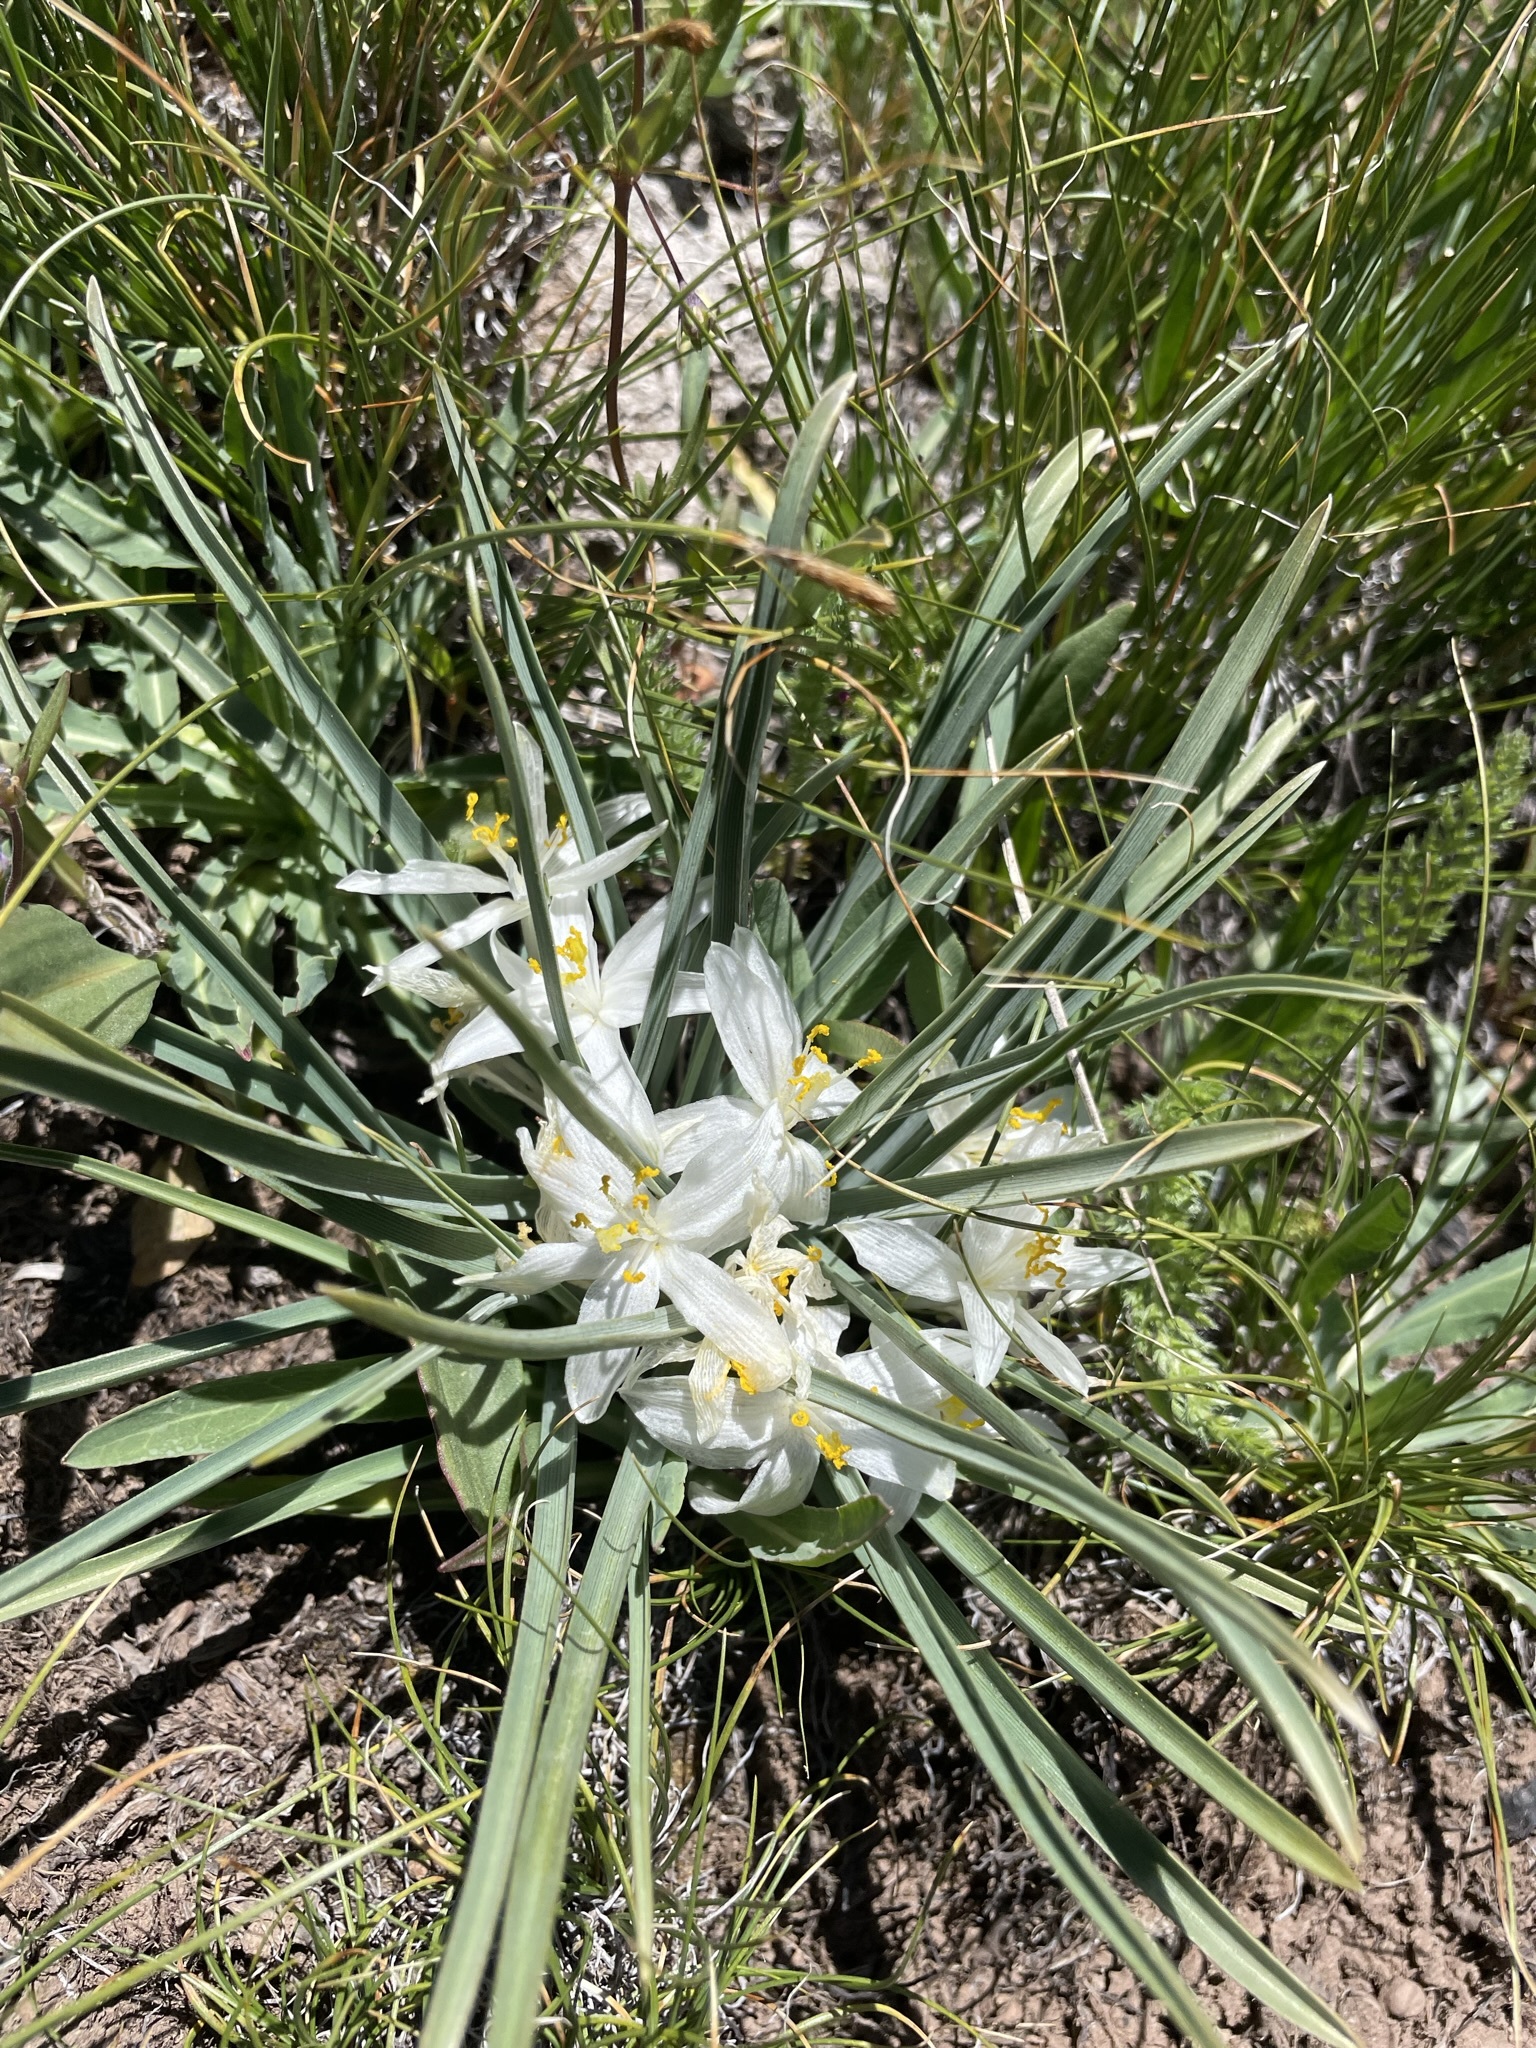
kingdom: Plantae
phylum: Tracheophyta
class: Liliopsida
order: Asparagales
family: Asparagaceae
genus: Leucocrinum
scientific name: Leucocrinum montanum
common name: Mountain-lily
